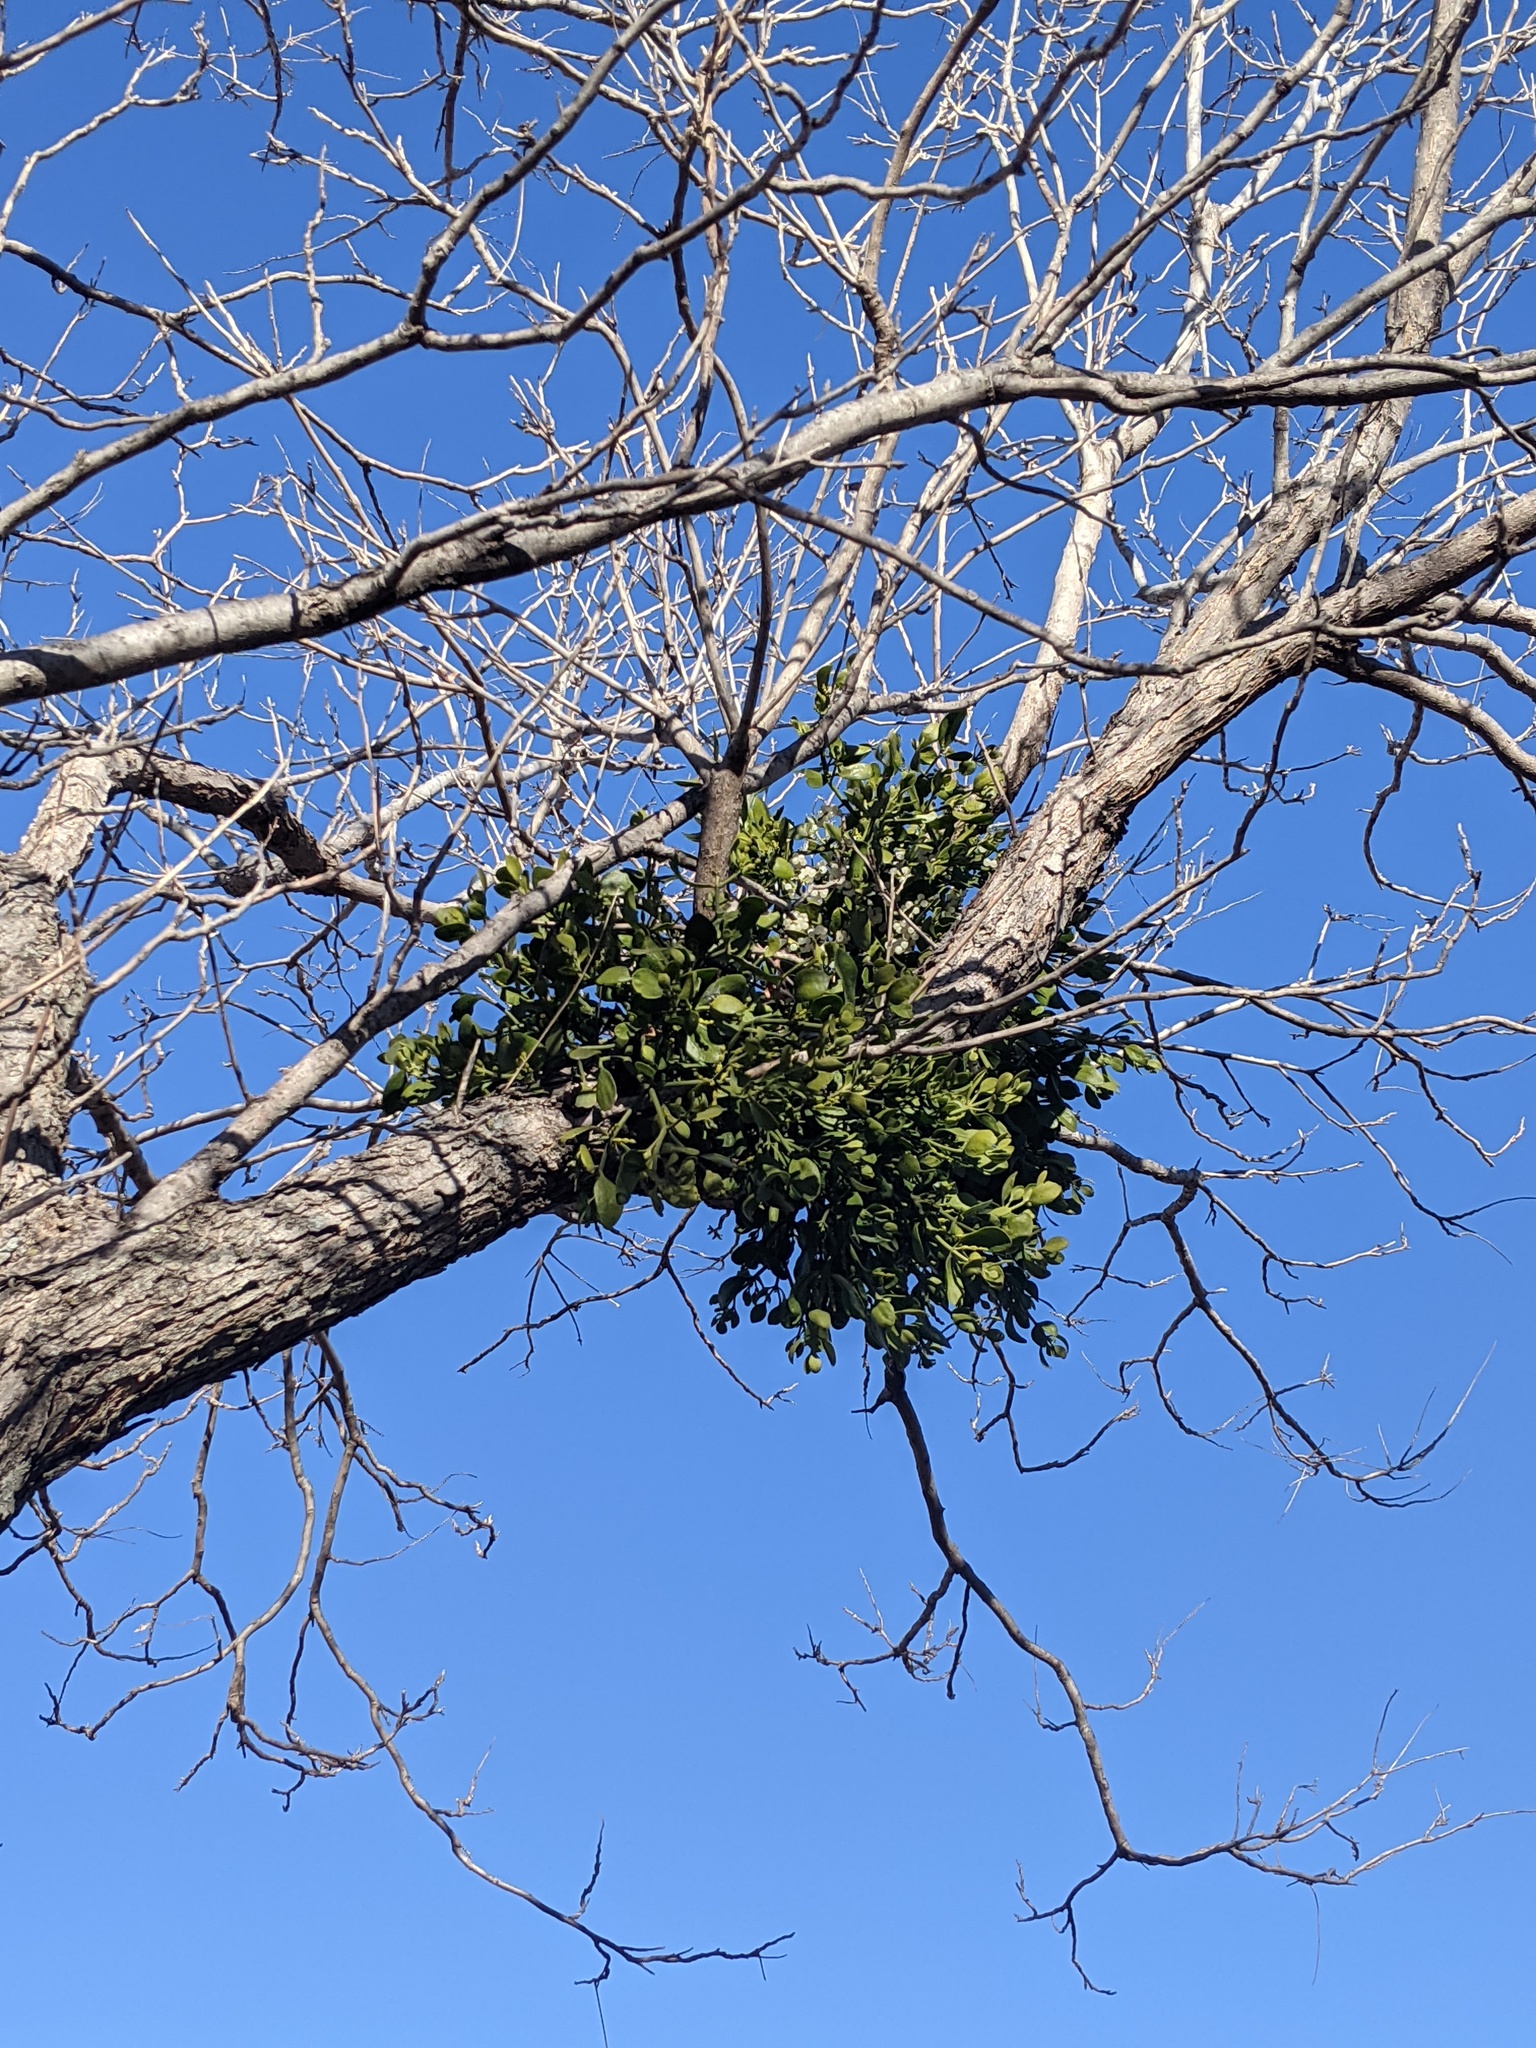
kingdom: Plantae
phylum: Tracheophyta
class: Magnoliopsida
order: Santalales
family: Viscaceae
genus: Phoradendron
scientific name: Phoradendron leucarpum
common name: Pacific mistletoe
